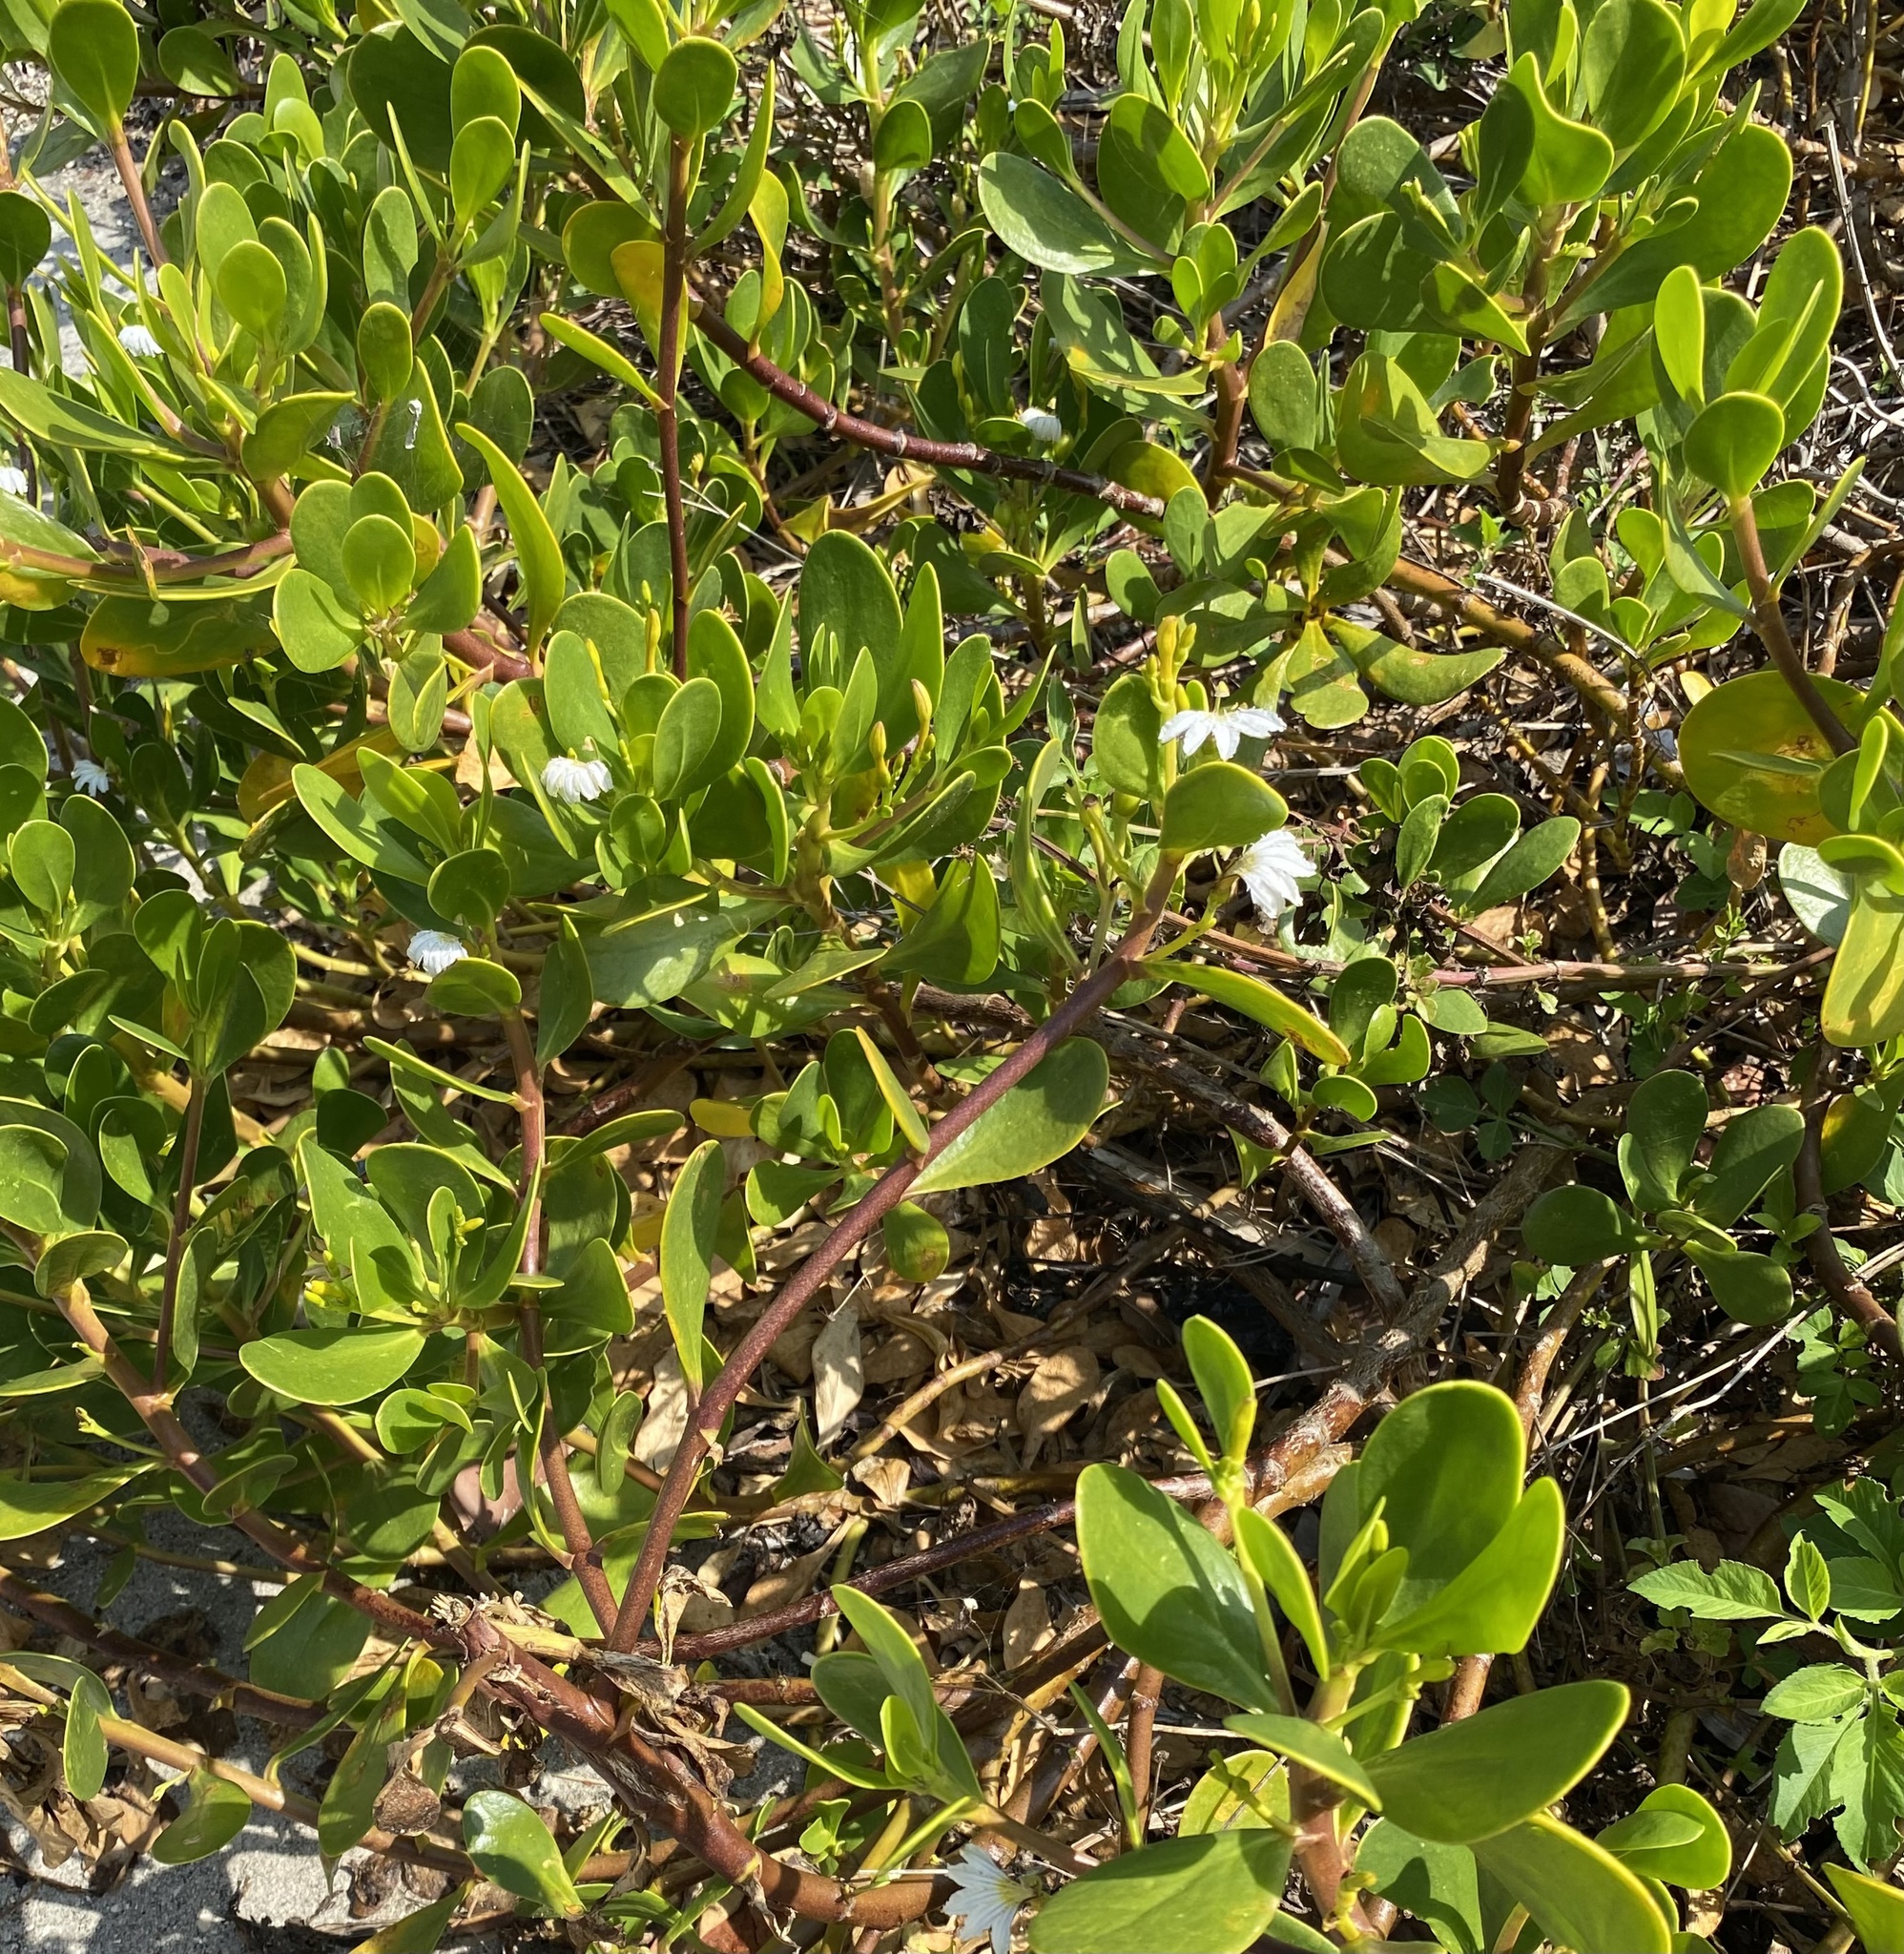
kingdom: Plantae
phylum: Tracheophyta
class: Magnoliopsida
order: Asterales
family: Goodeniaceae
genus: Scaevola
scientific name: Scaevola plumieri
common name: Gull feed
